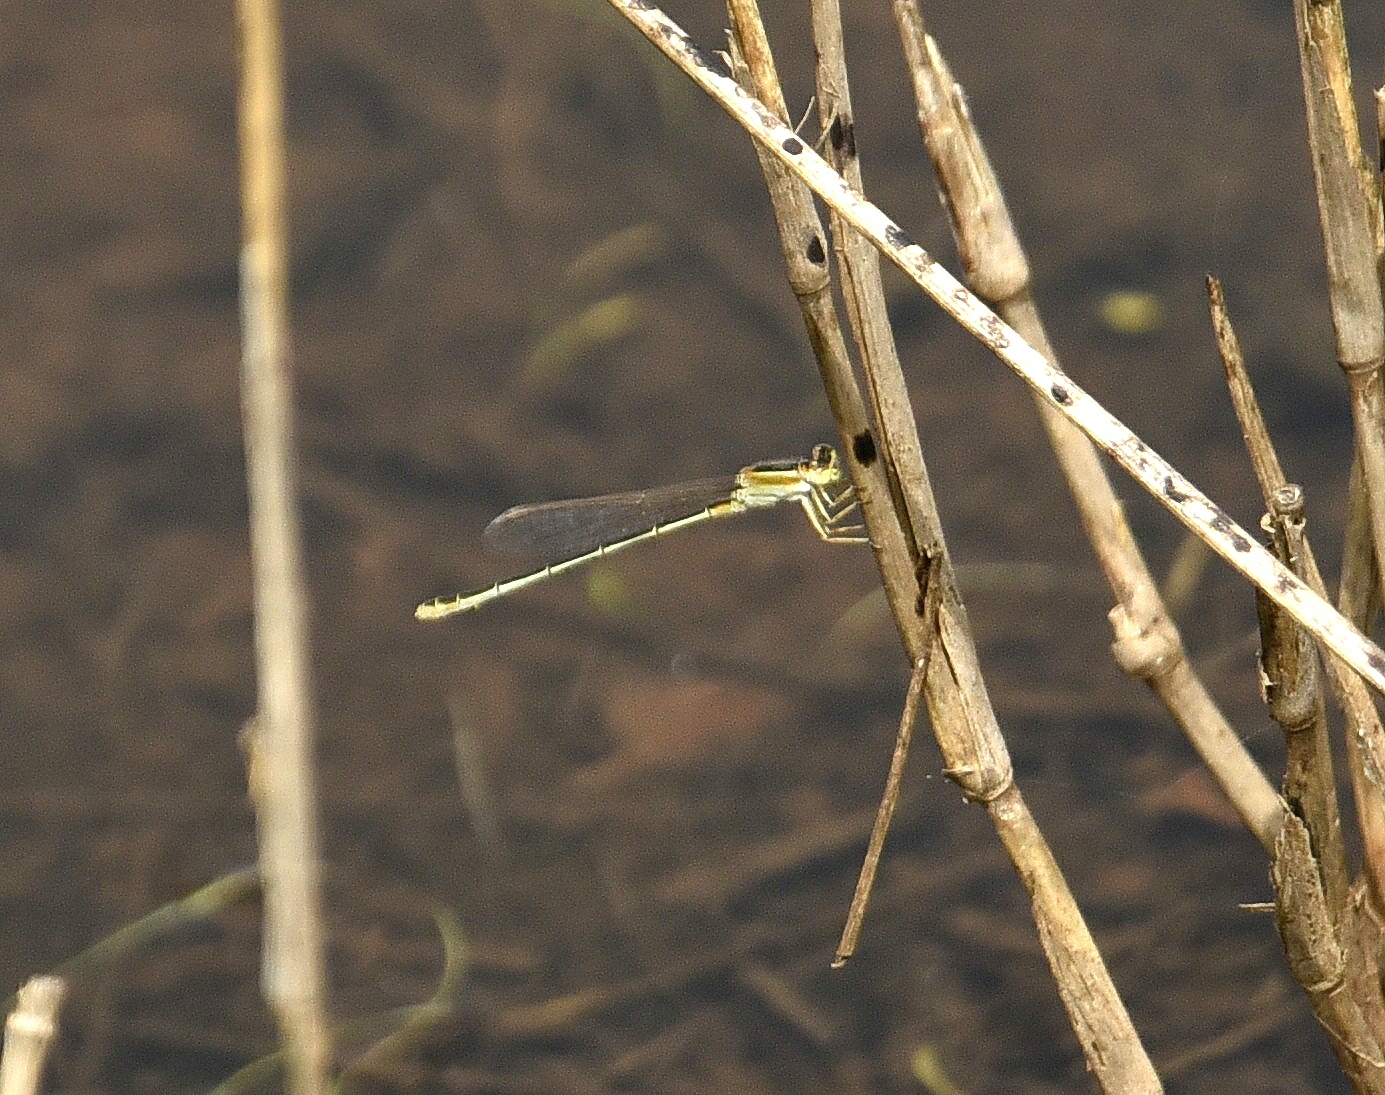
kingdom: Animalia
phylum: Arthropoda
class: Insecta
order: Odonata
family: Coenagrionidae
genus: Ischnura
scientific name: Ischnura senegalensis
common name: Tropical bluetail
